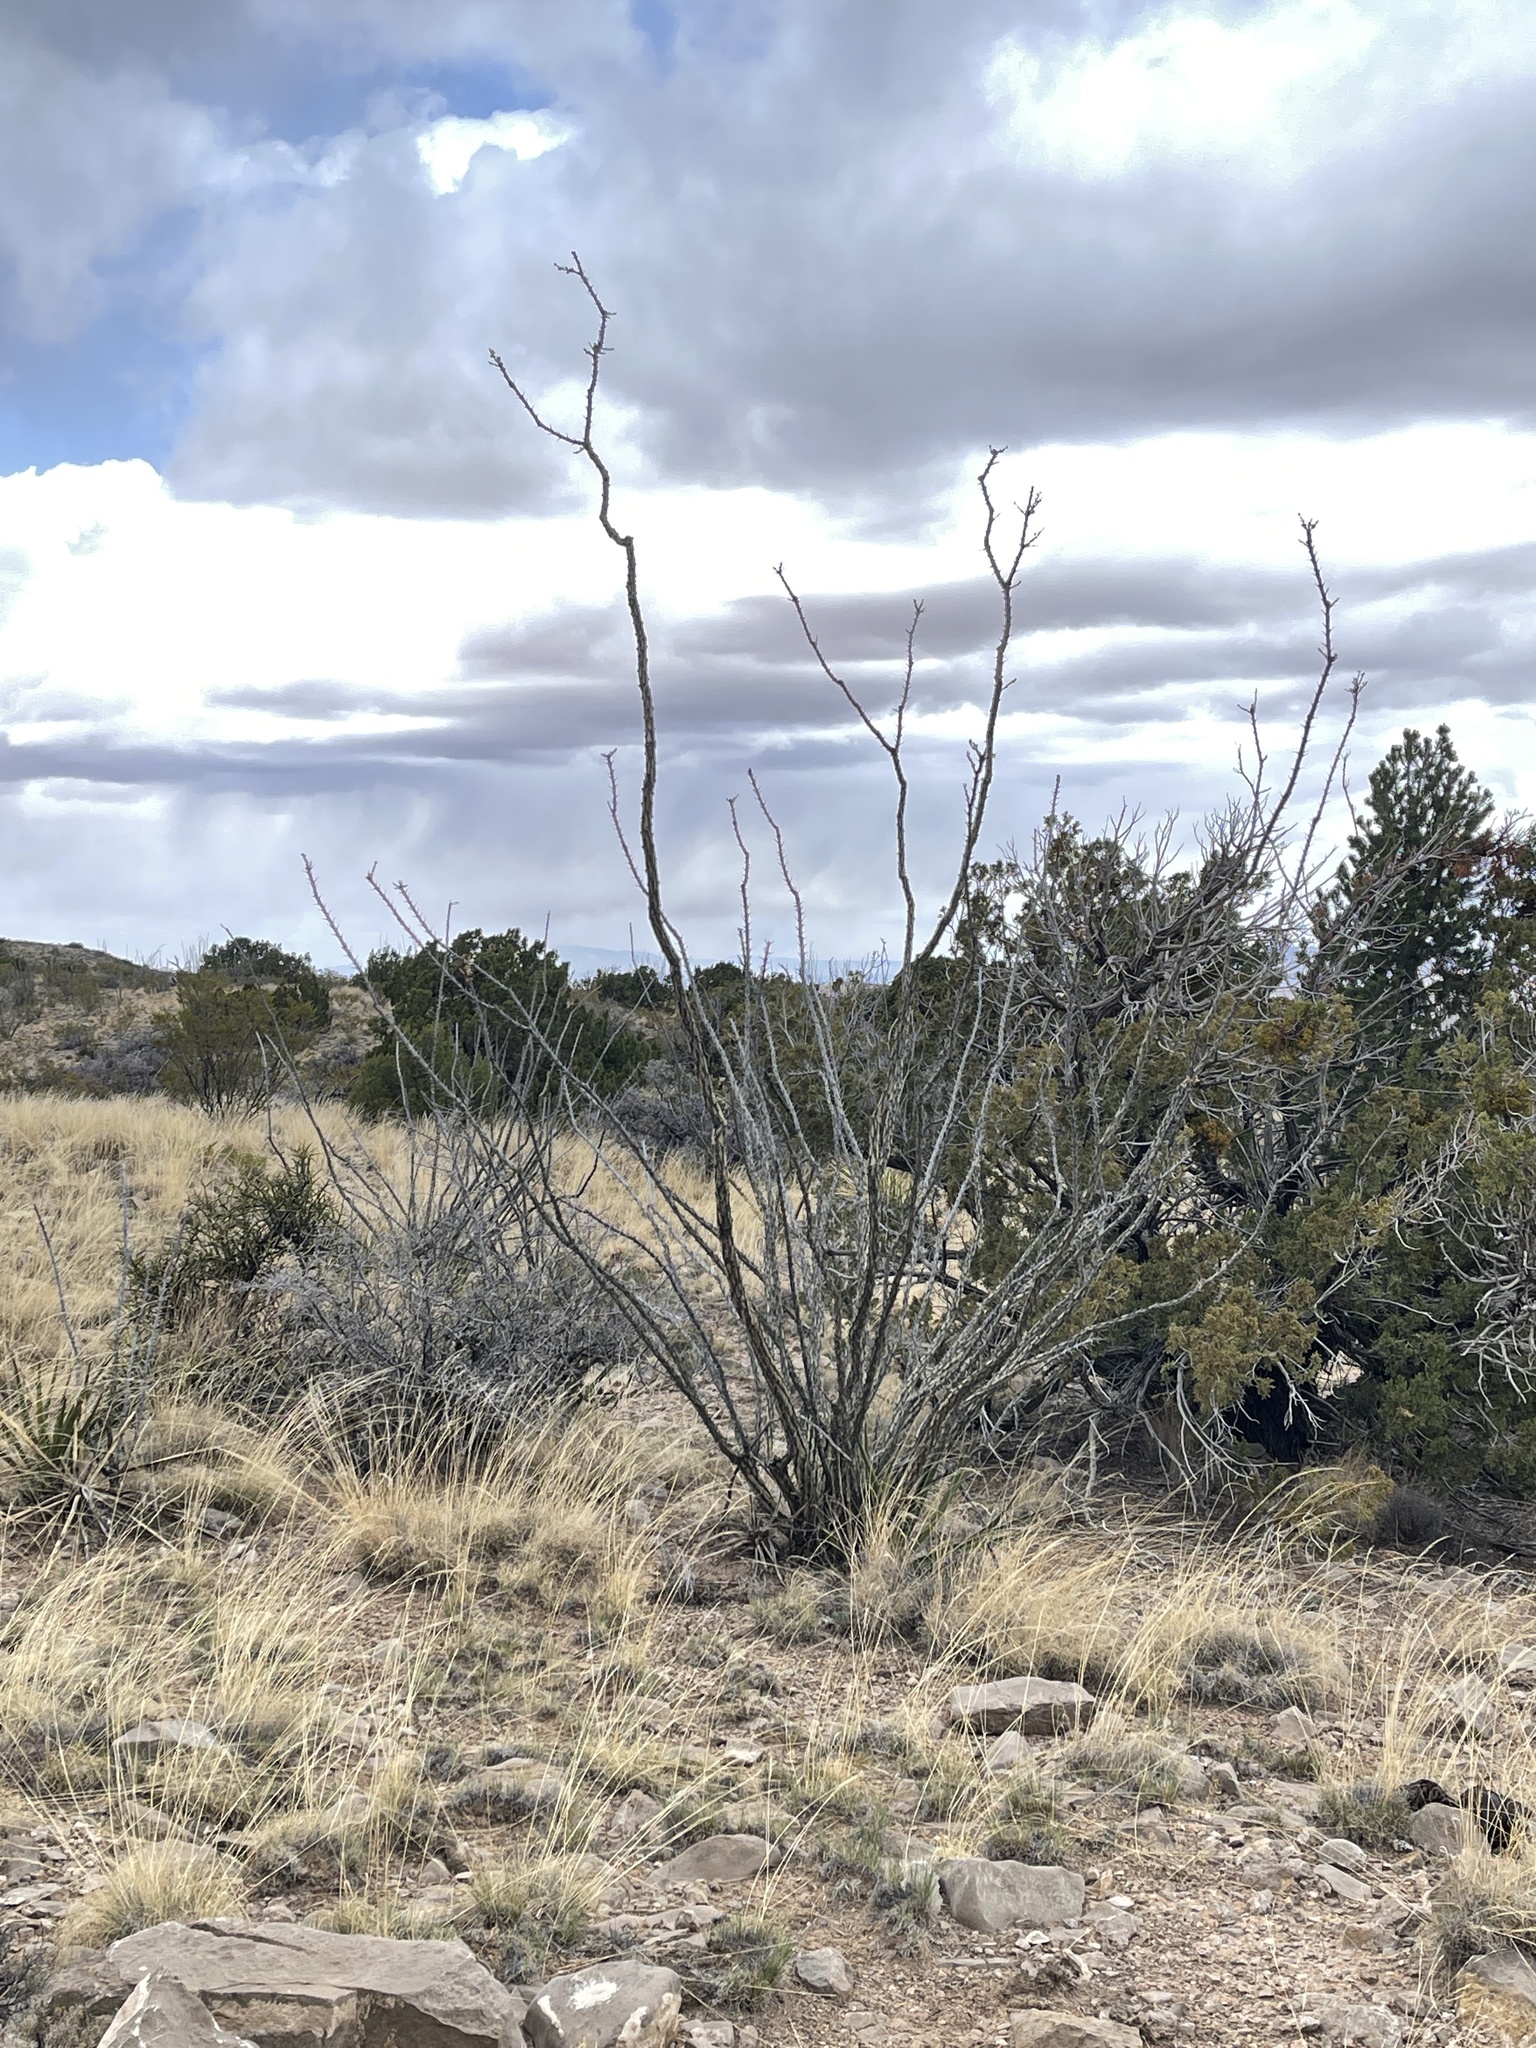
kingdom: Plantae
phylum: Tracheophyta
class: Magnoliopsida
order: Ericales
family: Fouquieriaceae
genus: Fouquieria
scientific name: Fouquieria splendens
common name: Vine-cactus
